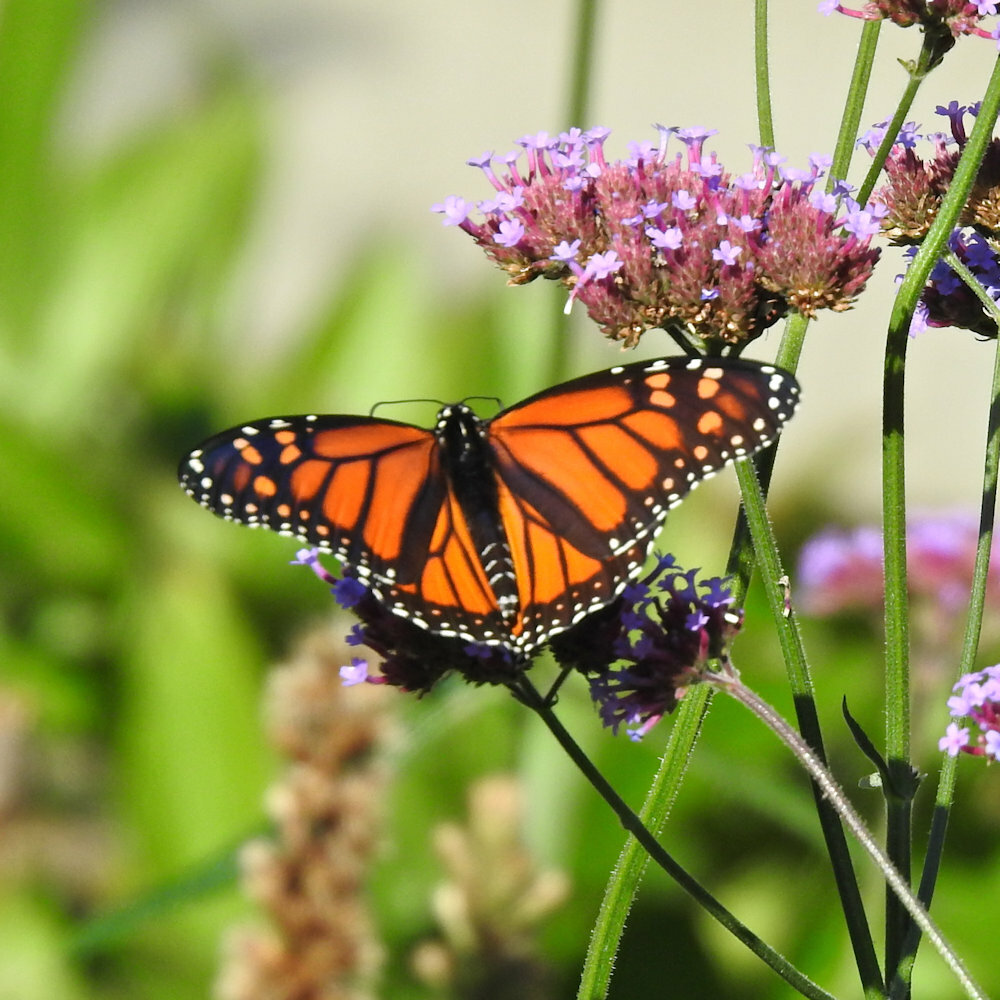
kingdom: Animalia
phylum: Arthropoda
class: Insecta
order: Lepidoptera
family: Nymphalidae
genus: Danaus
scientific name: Danaus plexippus
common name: Monarch
